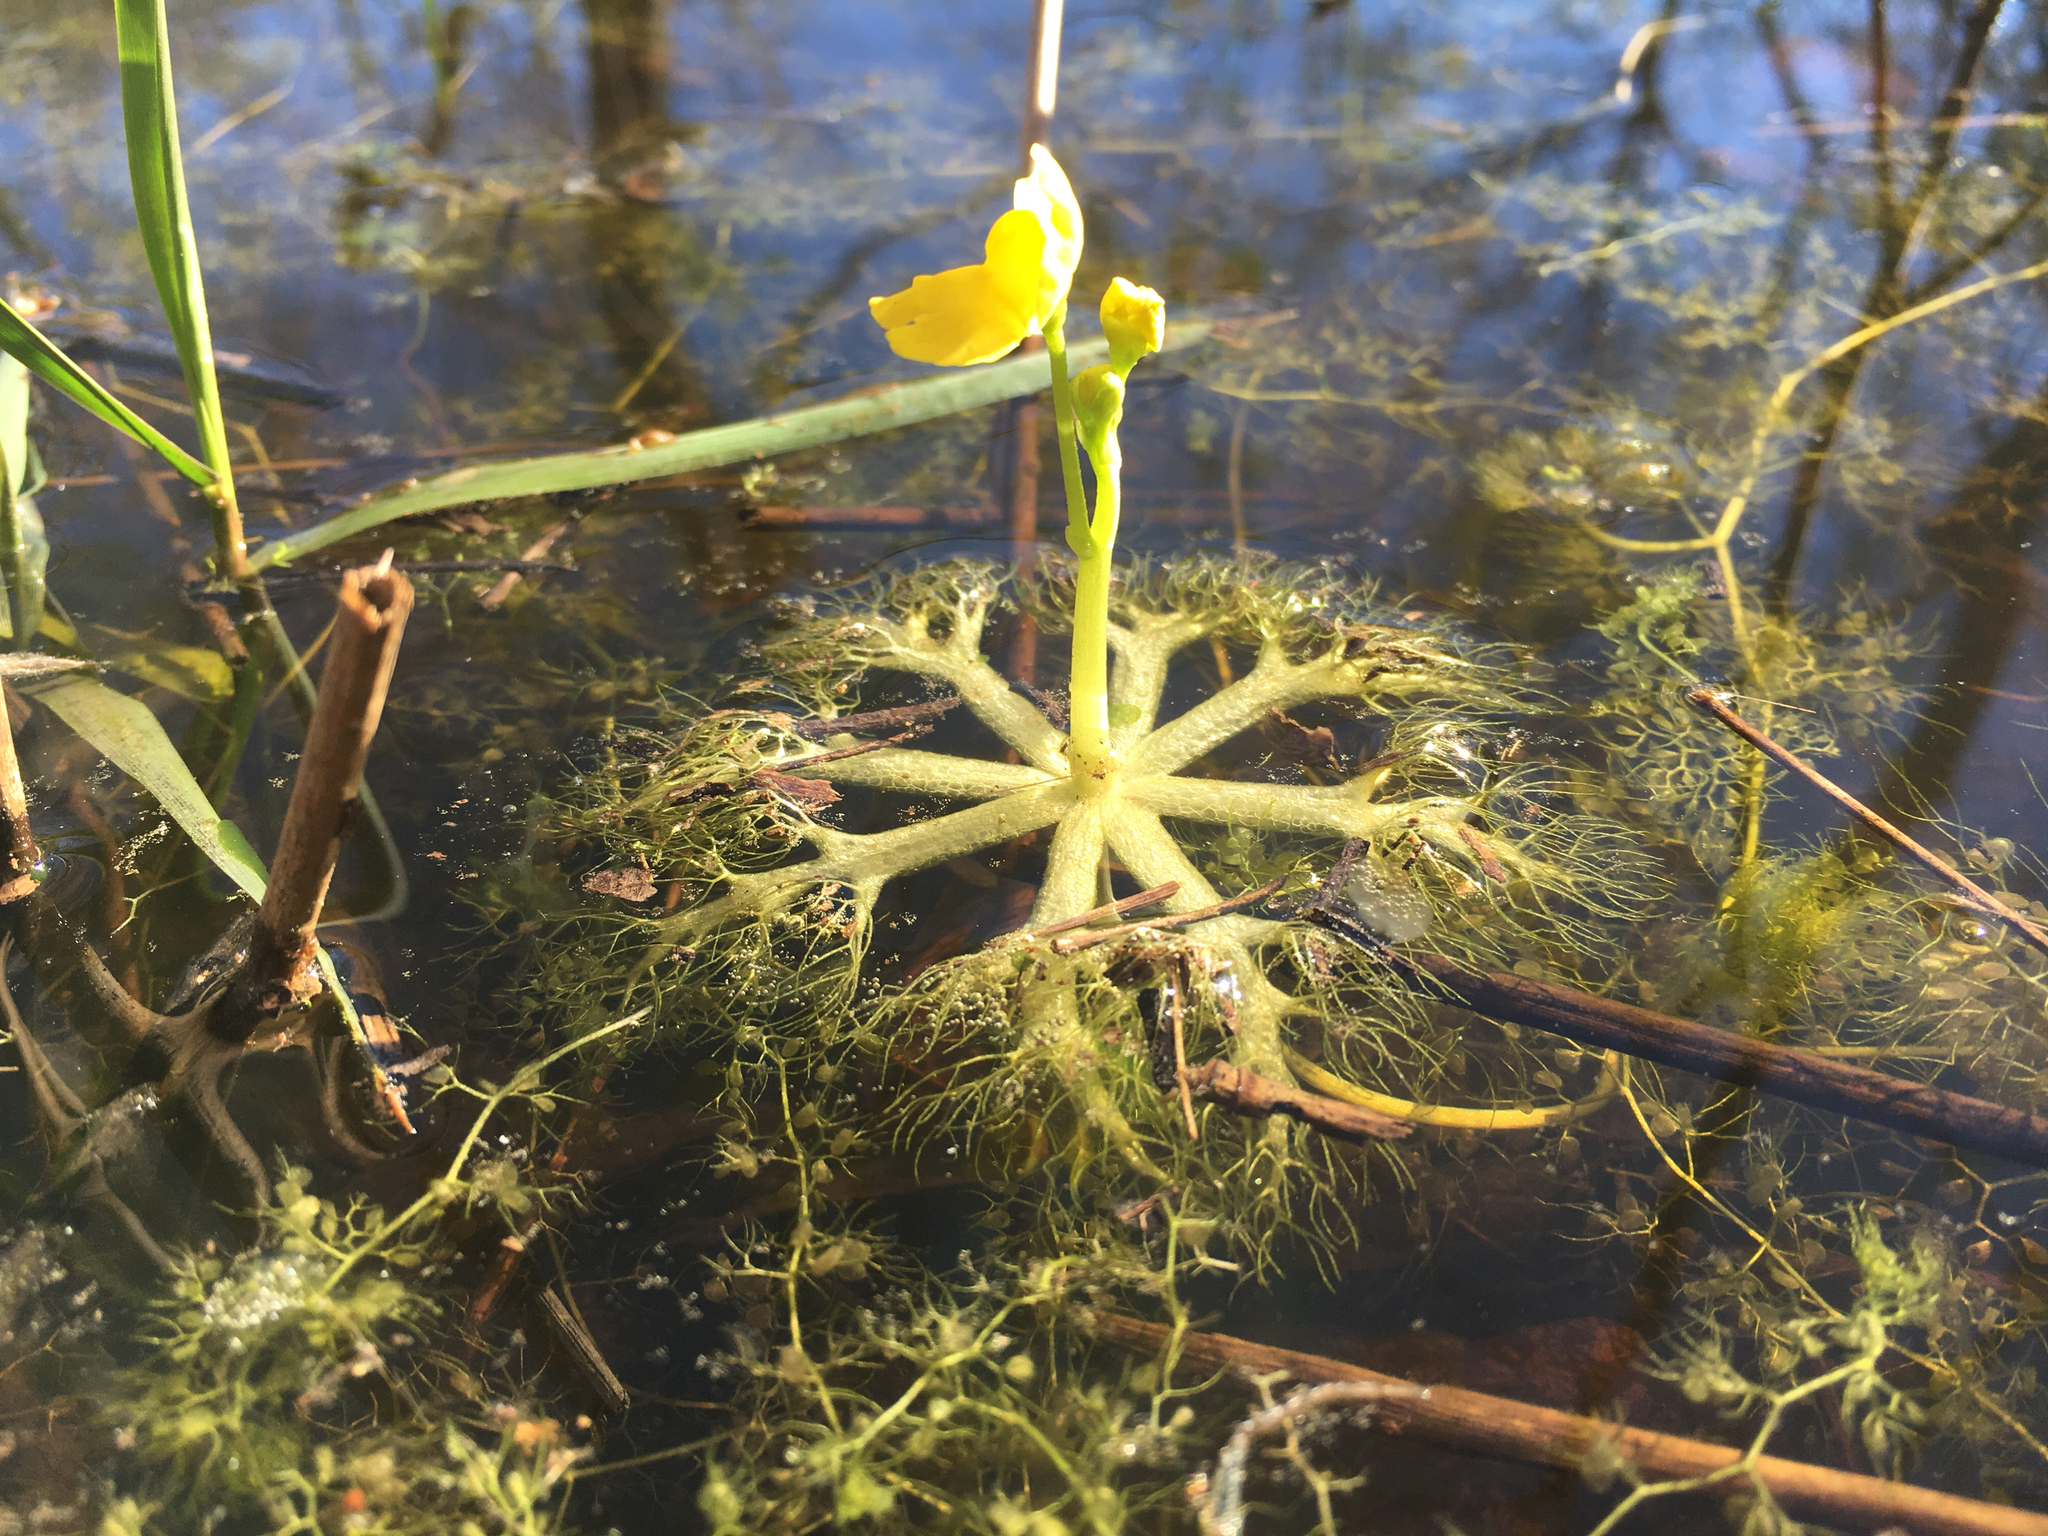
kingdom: Plantae
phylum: Tracheophyta
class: Magnoliopsida
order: Lamiales
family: Lentibulariaceae
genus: Utricularia
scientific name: Utricularia radiata
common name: Floating bladderwort
